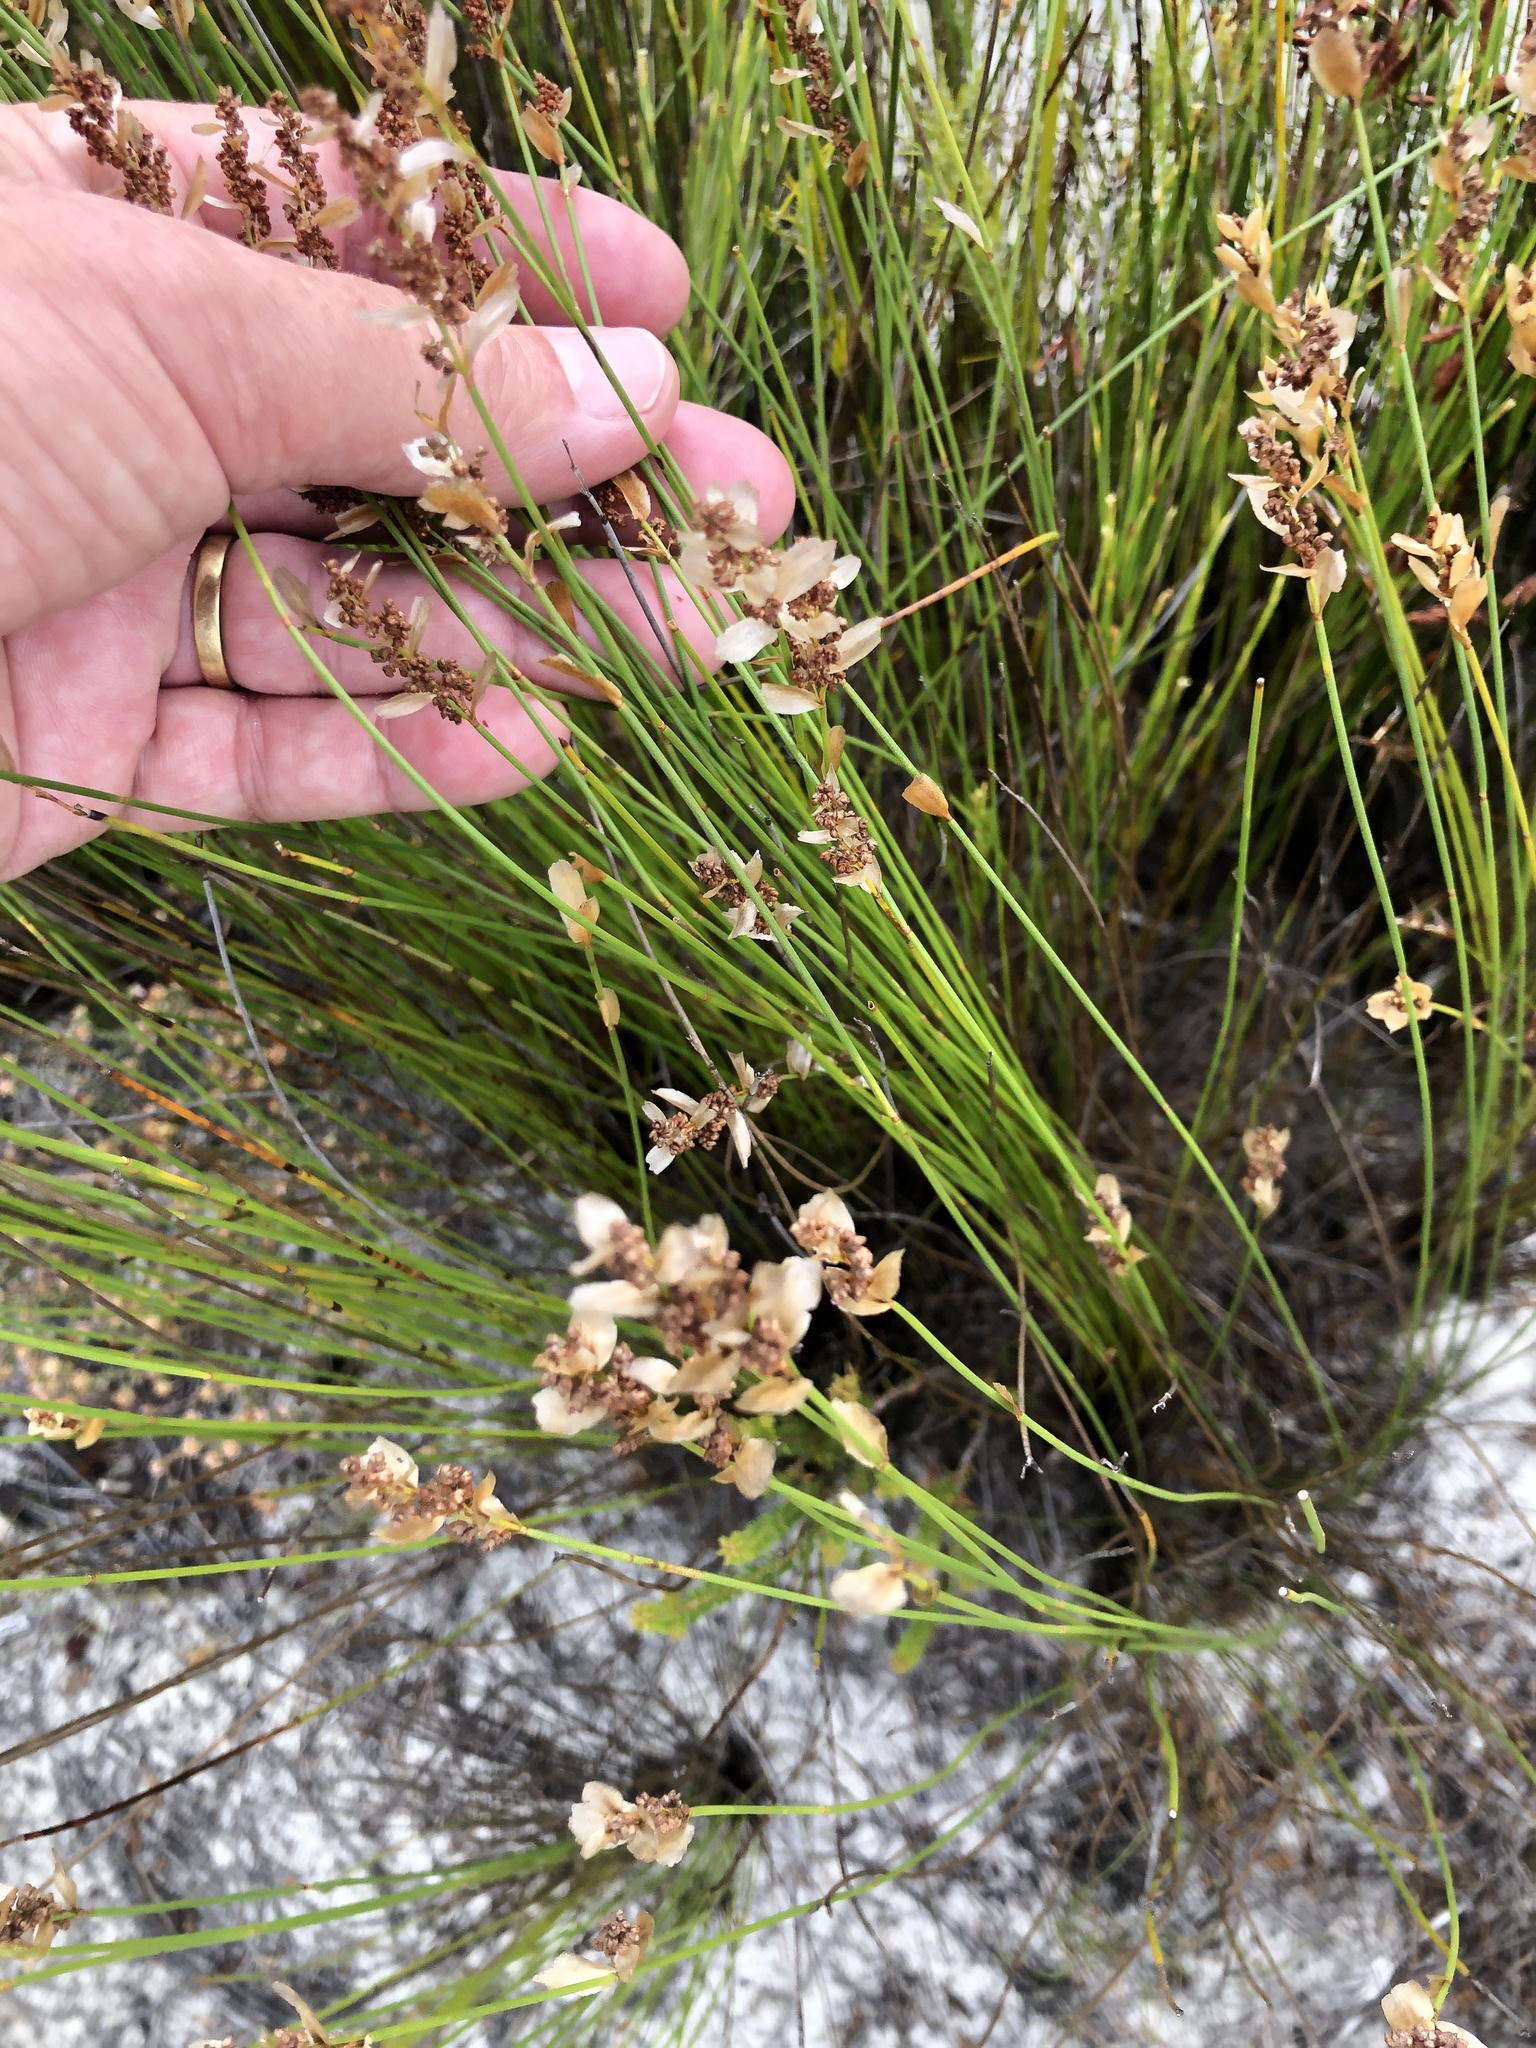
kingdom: Plantae
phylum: Tracheophyta
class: Liliopsida
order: Poales
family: Restionaceae
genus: Elegia
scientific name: Elegia filacea
